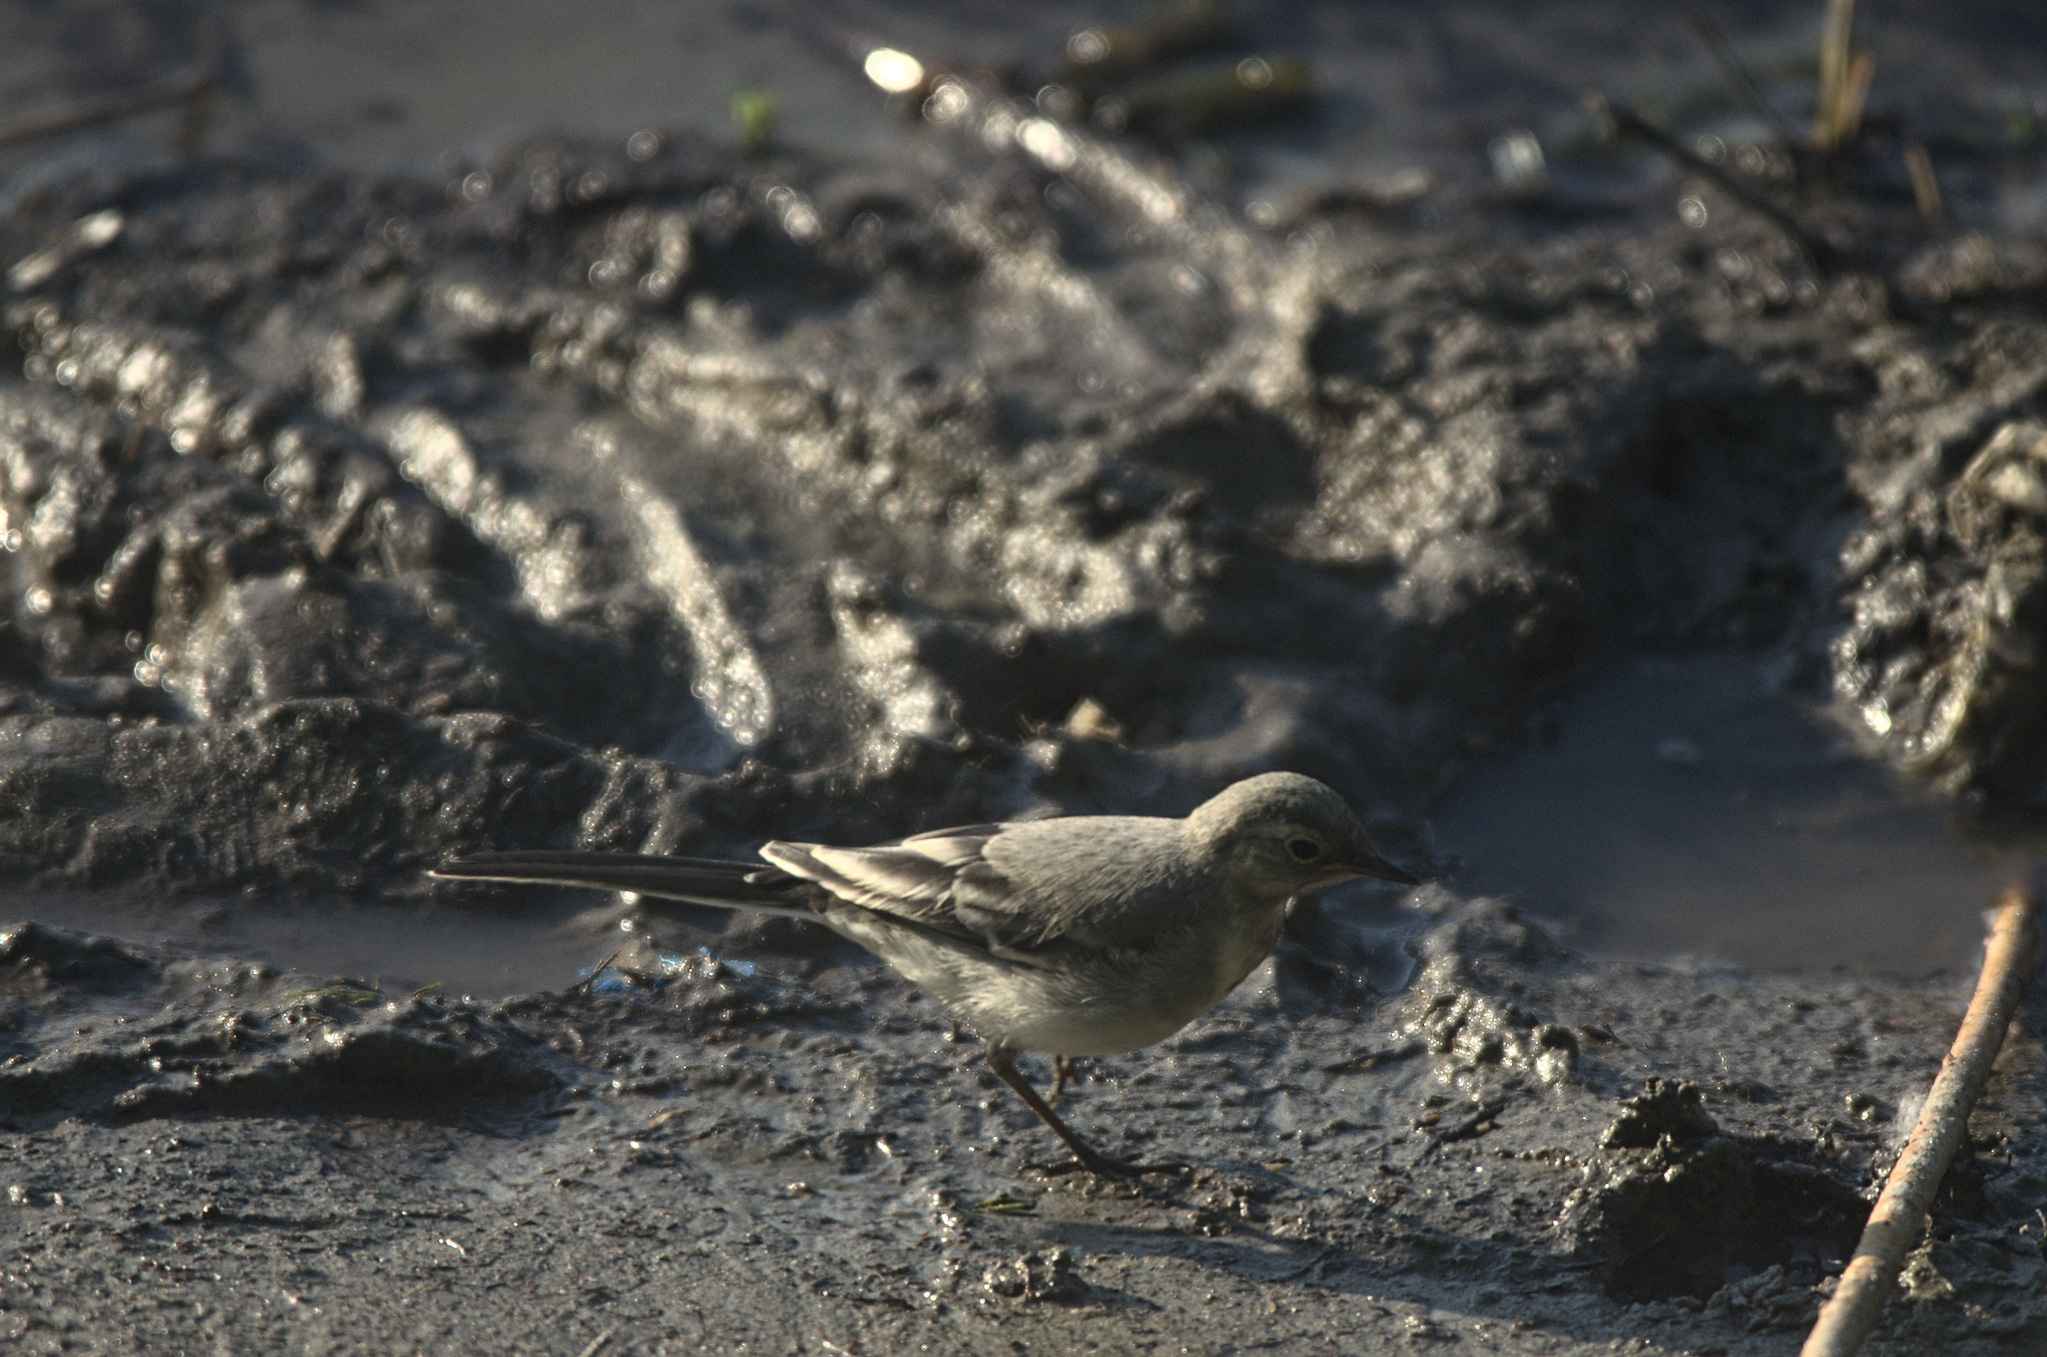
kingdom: Animalia
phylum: Chordata
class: Aves
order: Passeriformes
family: Motacillidae
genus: Motacilla
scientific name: Motacilla alba
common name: White wagtail
